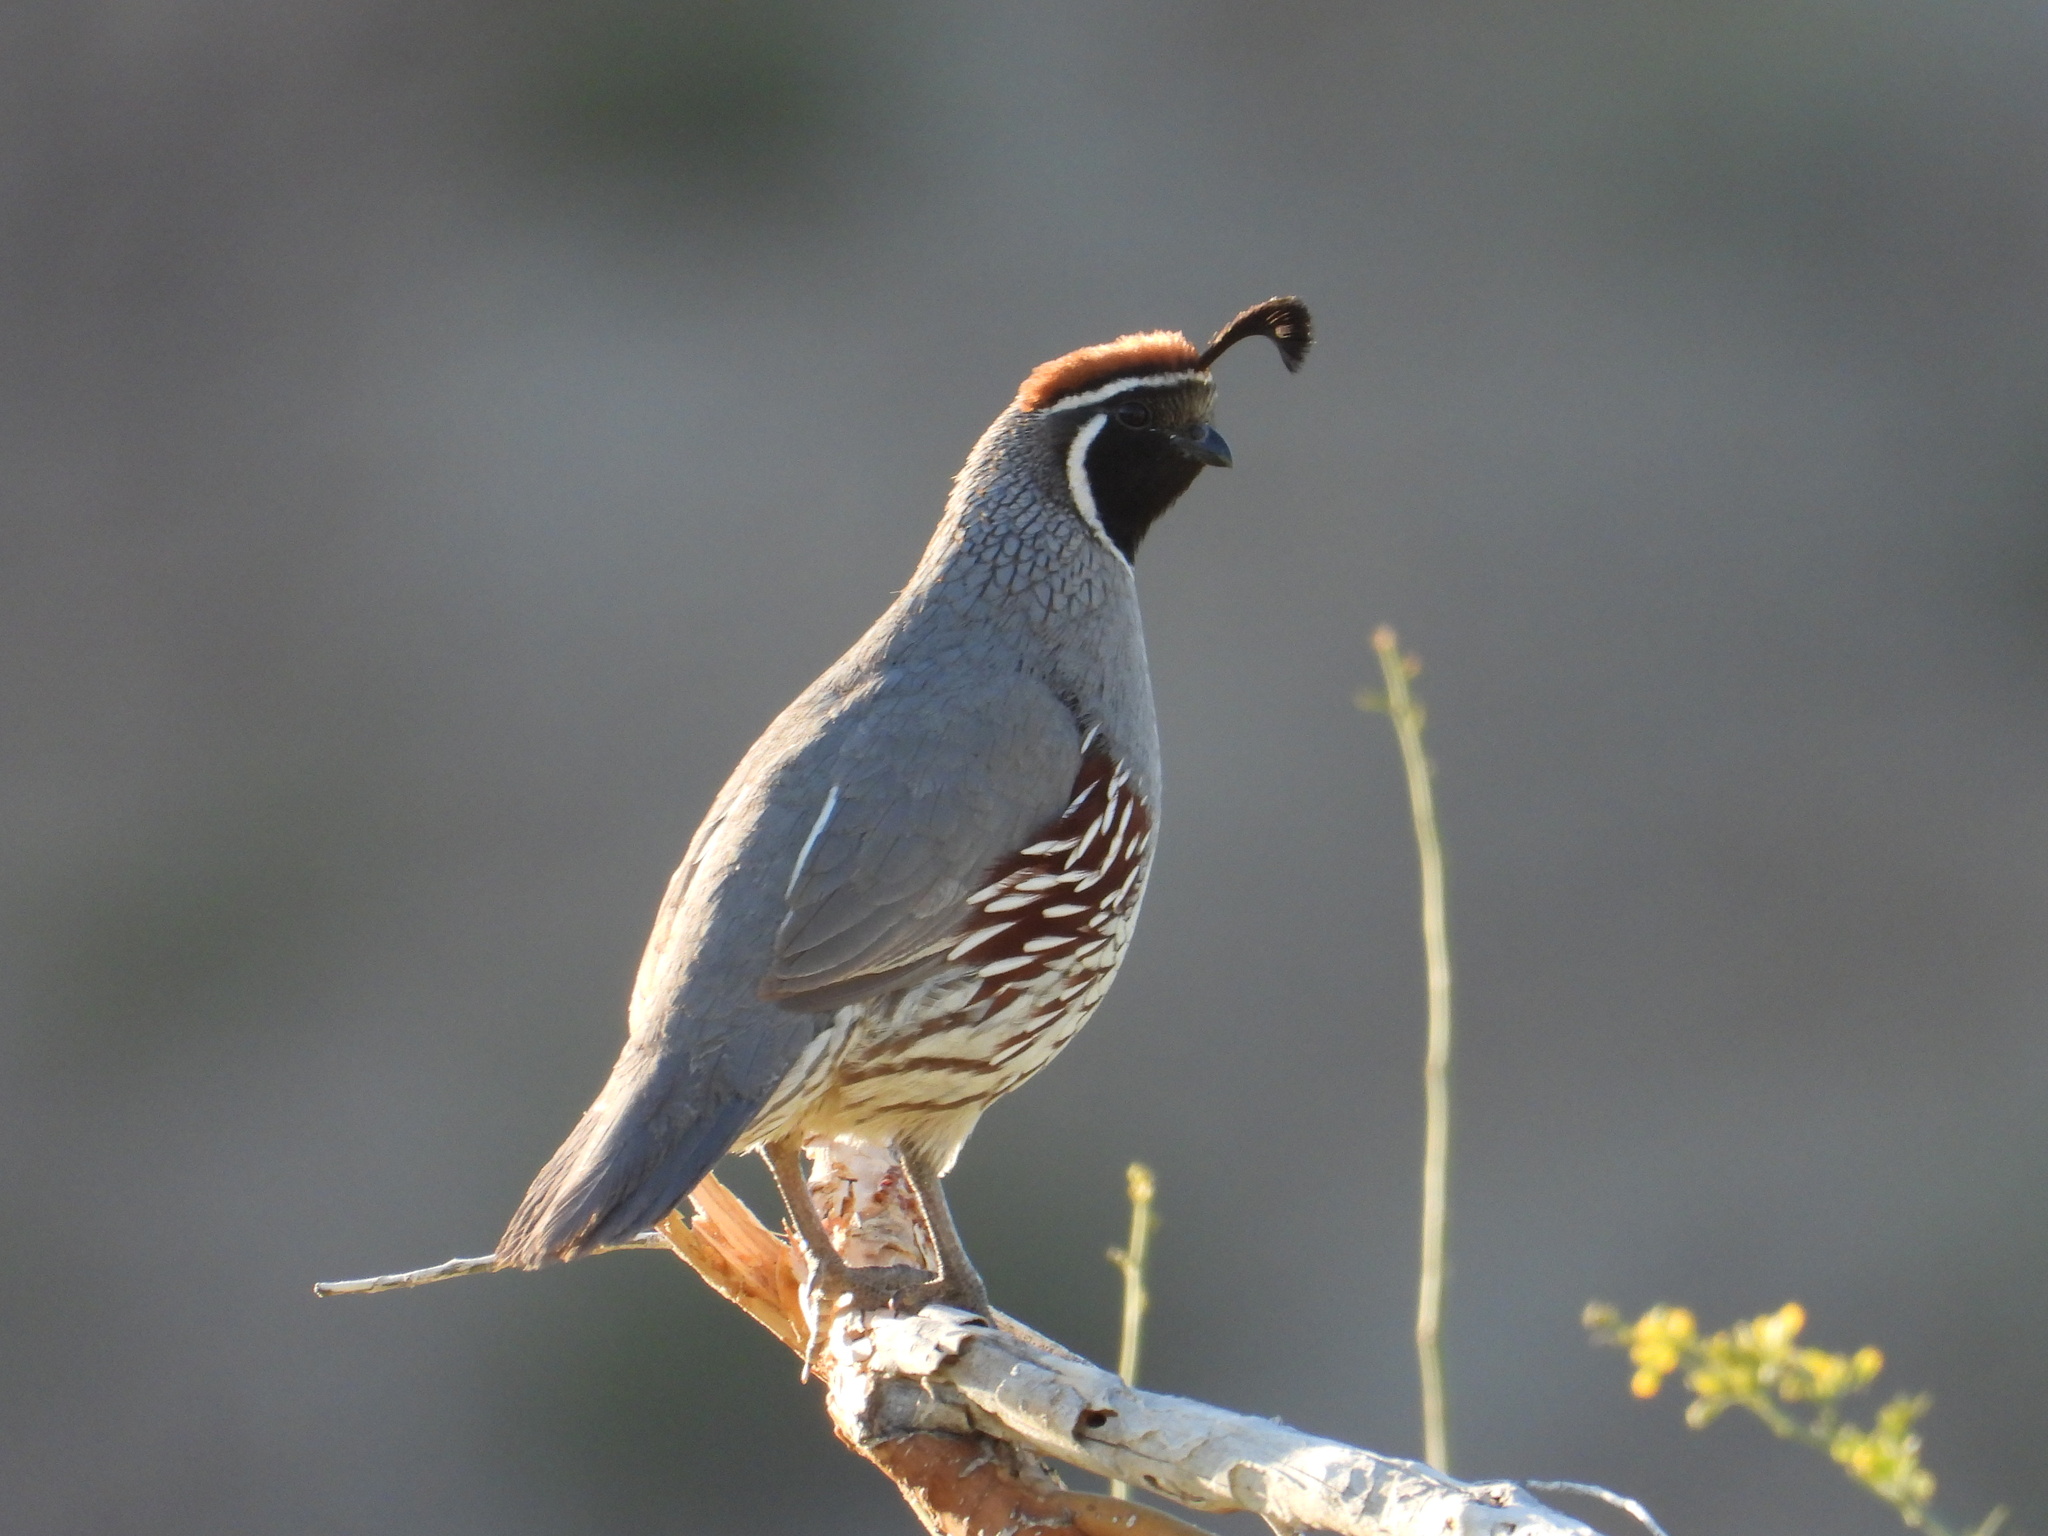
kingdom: Animalia
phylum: Chordata
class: Aves
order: Galliformes
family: Odontophoridae
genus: Callipepla
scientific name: Callipepla gambelii
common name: Gambel's quail
